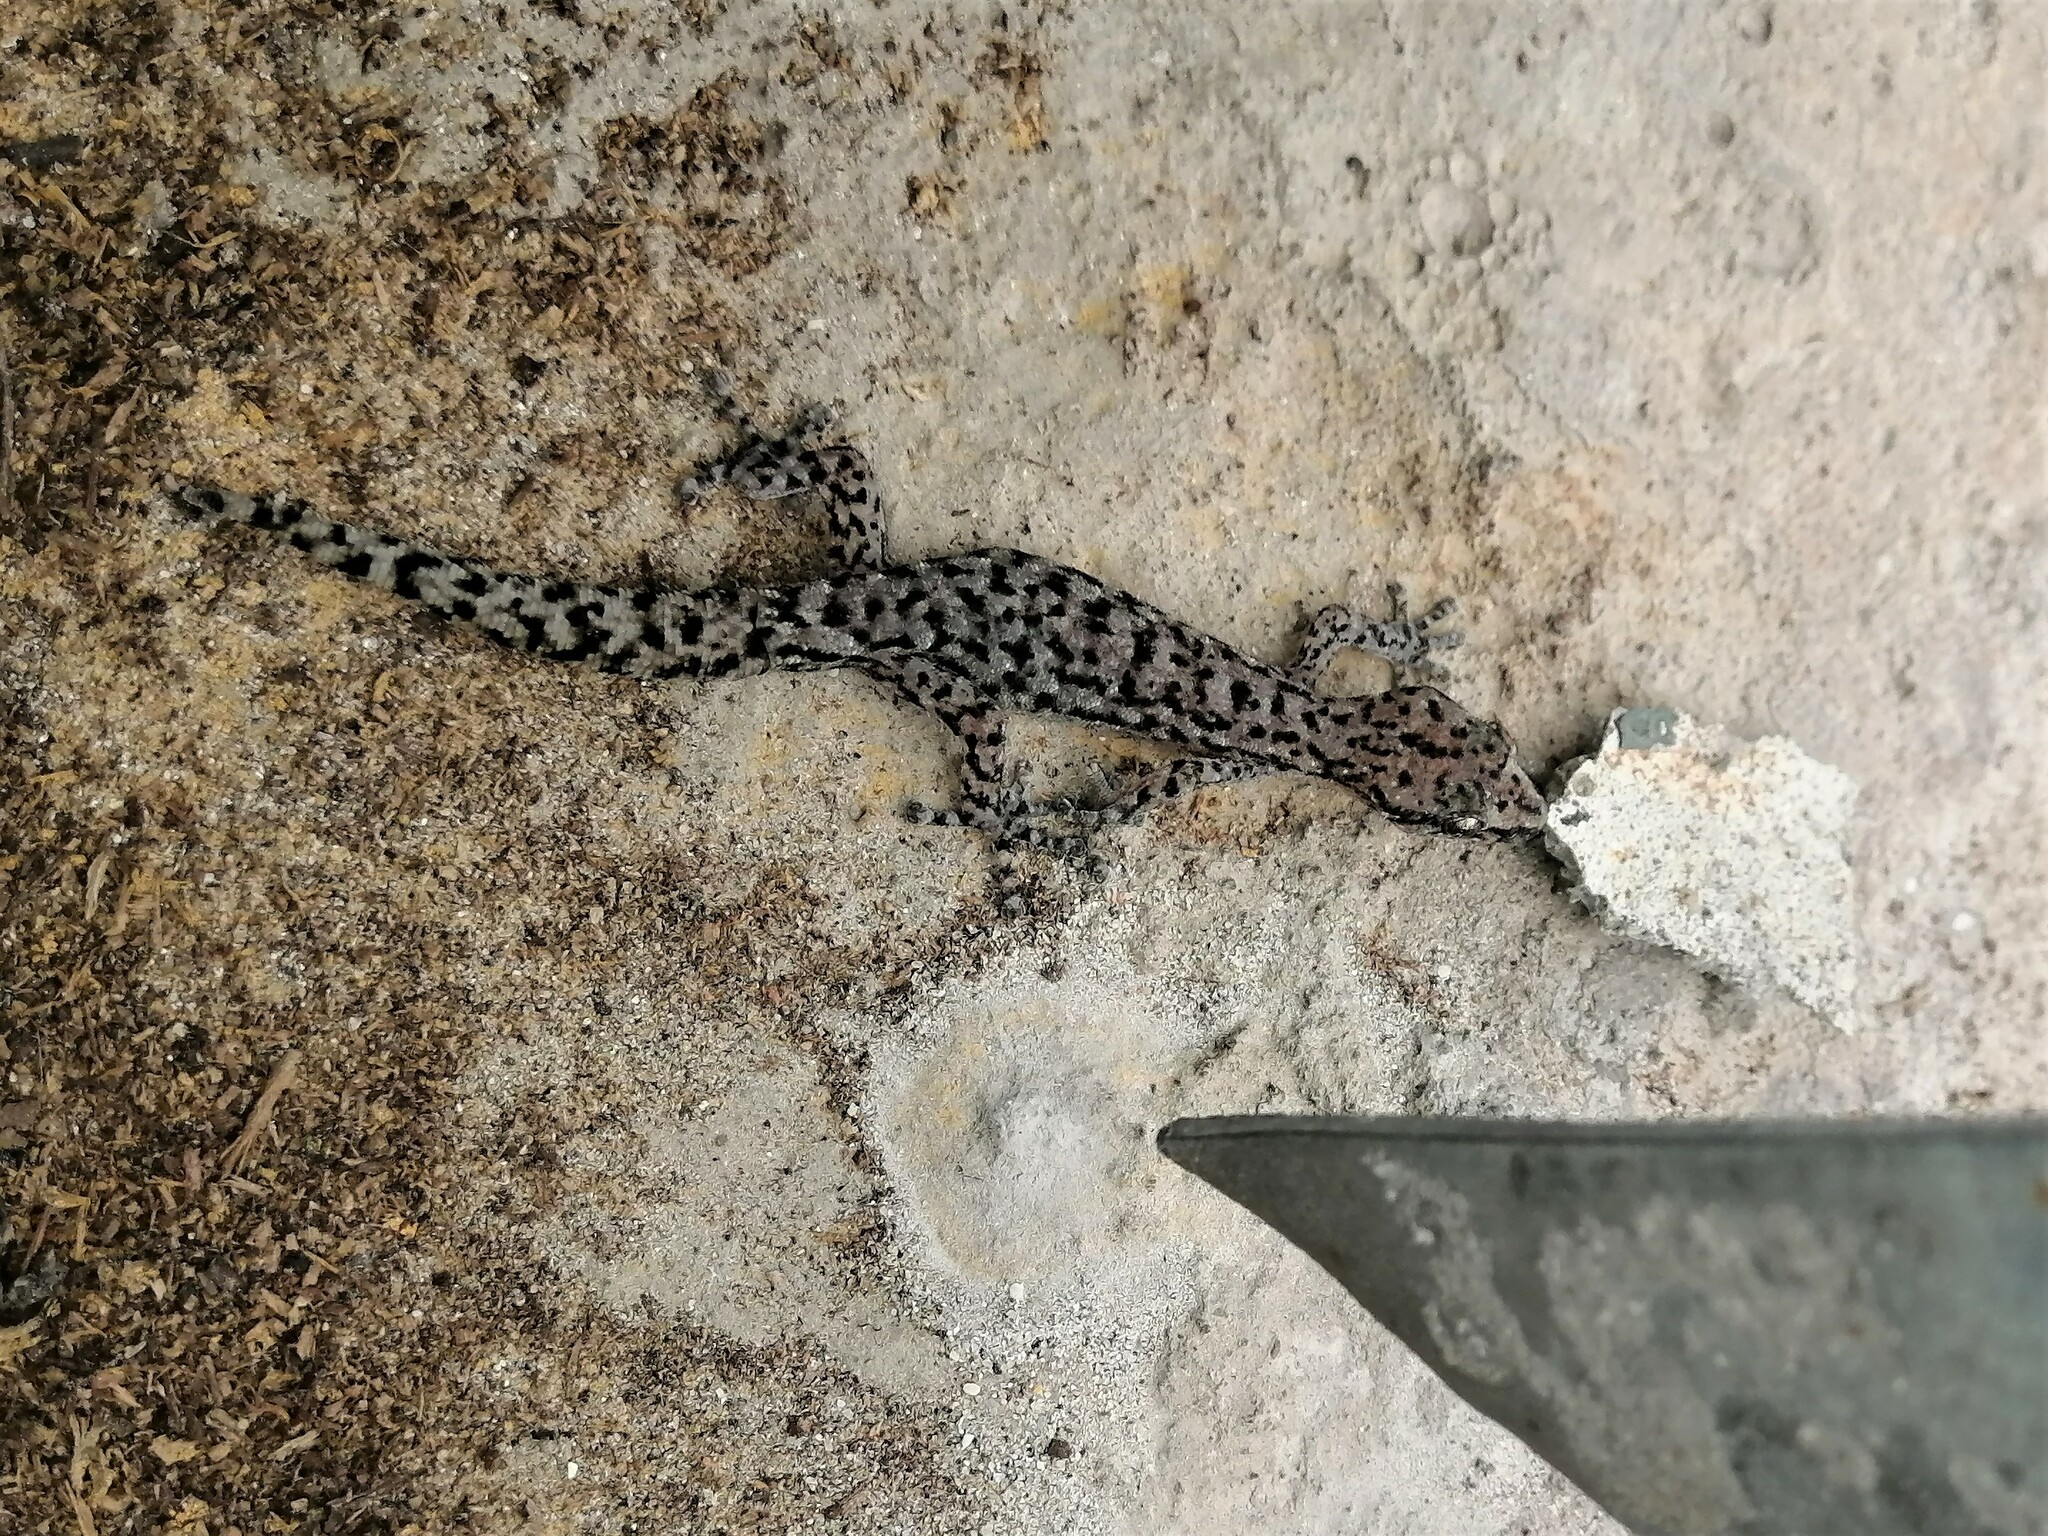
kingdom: Animalia
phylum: Chordata
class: Squamata
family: Gekkonidae
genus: Afrogecko
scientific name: Afrogecko porphyreus
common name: Marbled leaf-toed gecko
